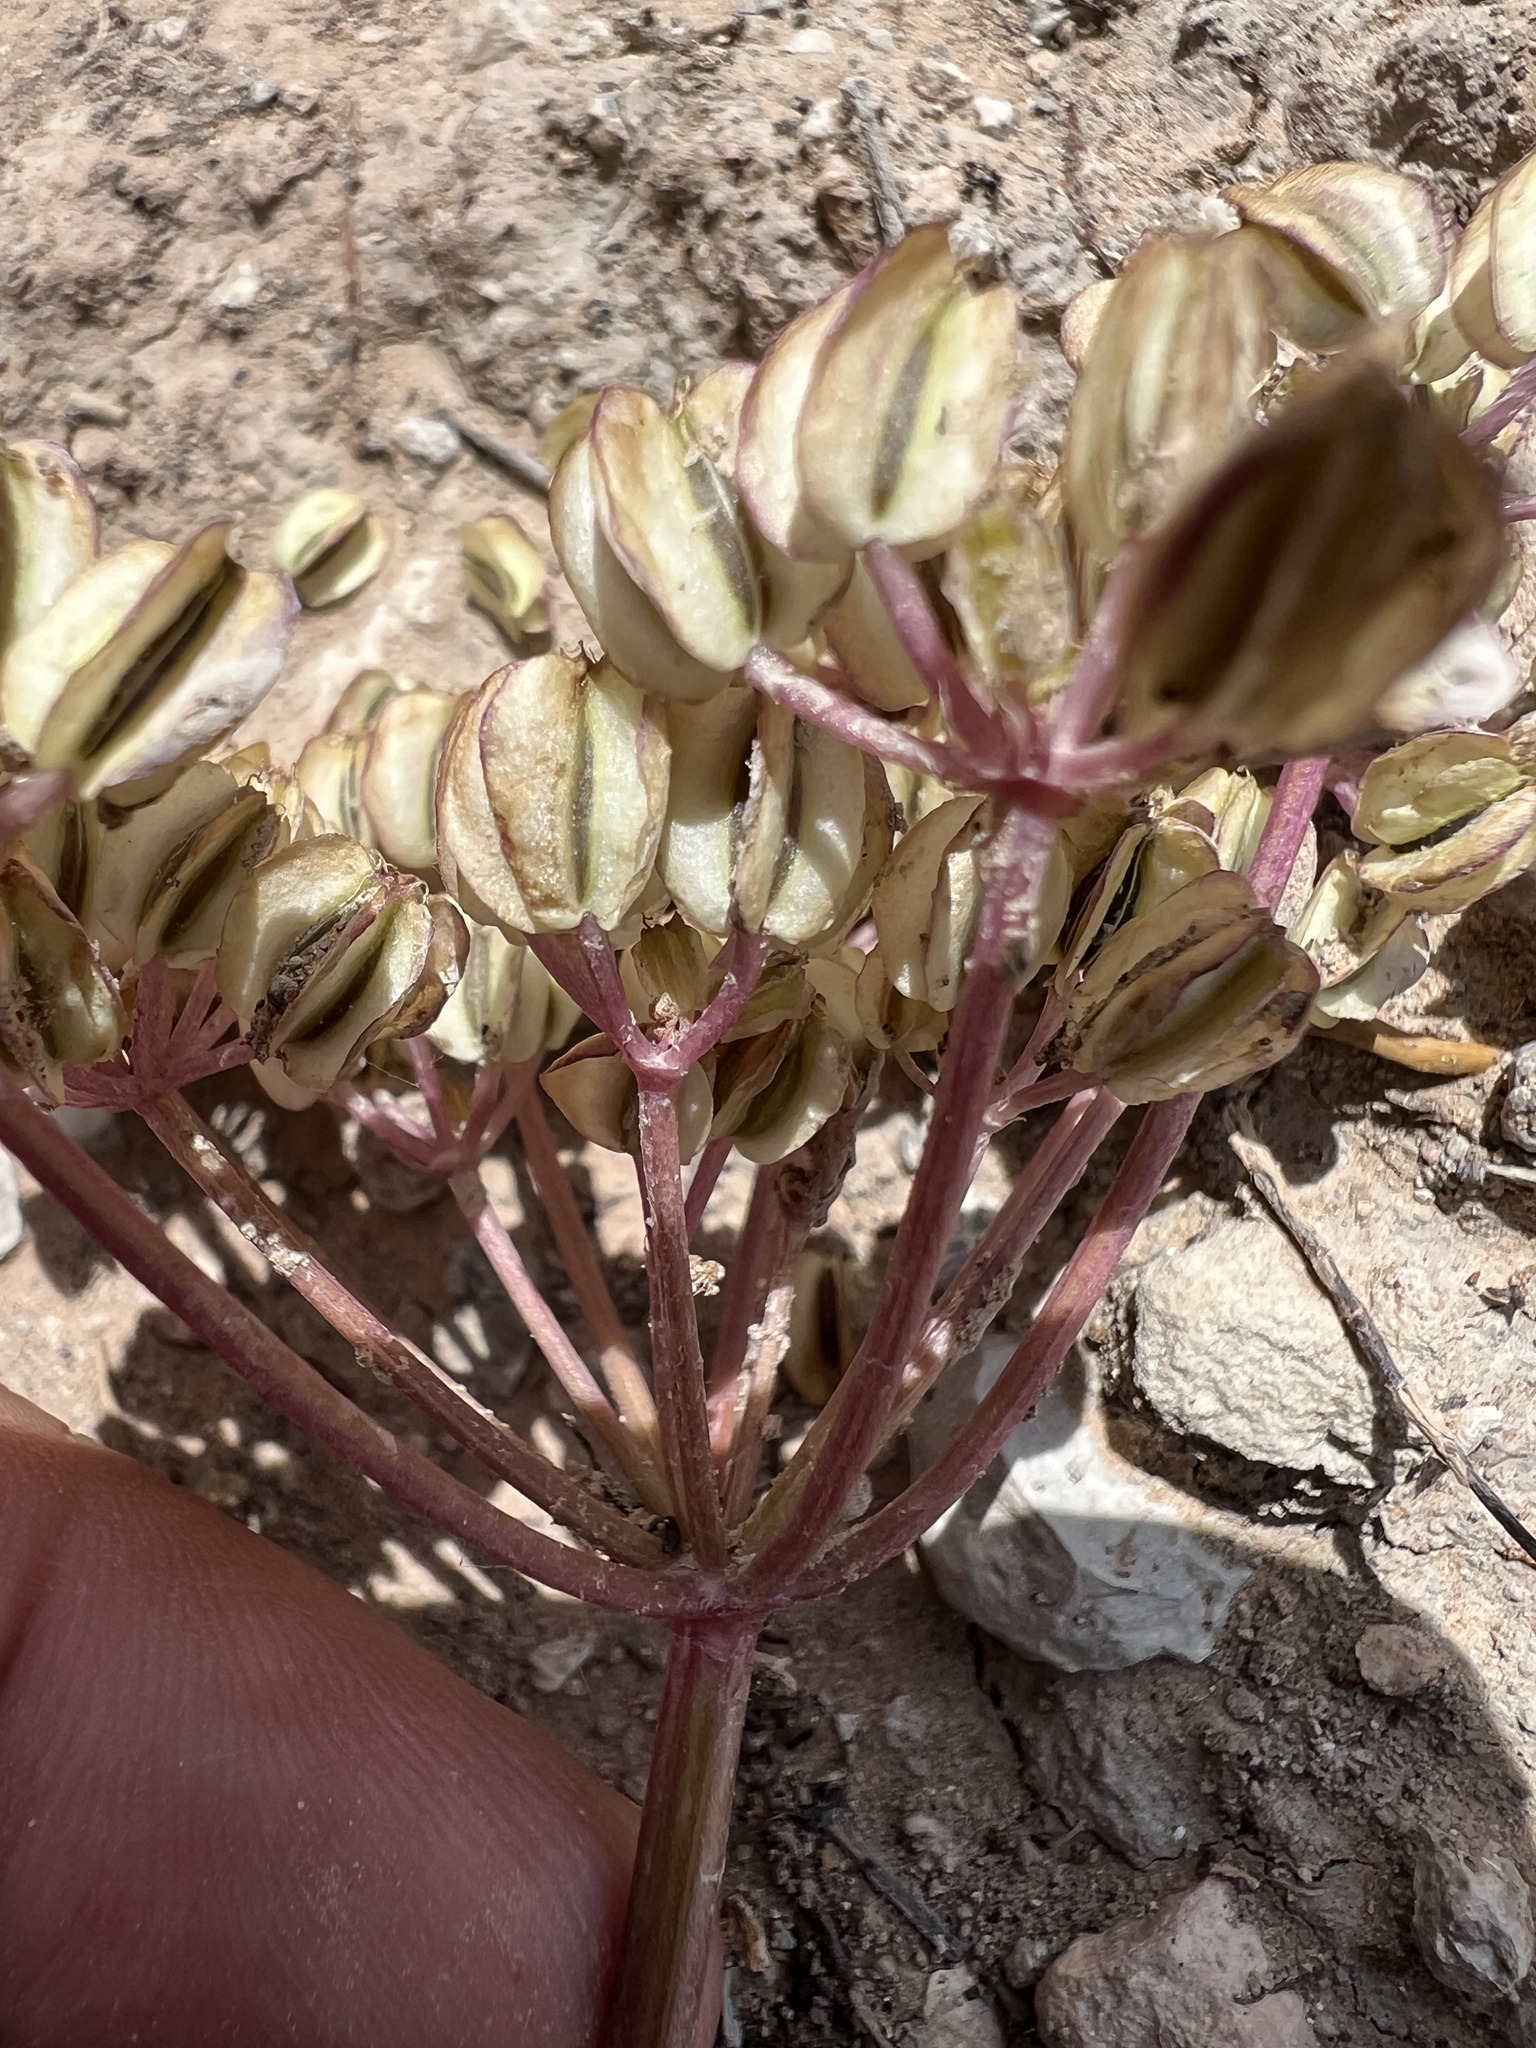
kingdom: Plantae
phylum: Tracheophyta
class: Magnoliopsida
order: Apiales
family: Apiaceae
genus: Aulospermum
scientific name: Aulospermum purpureum
